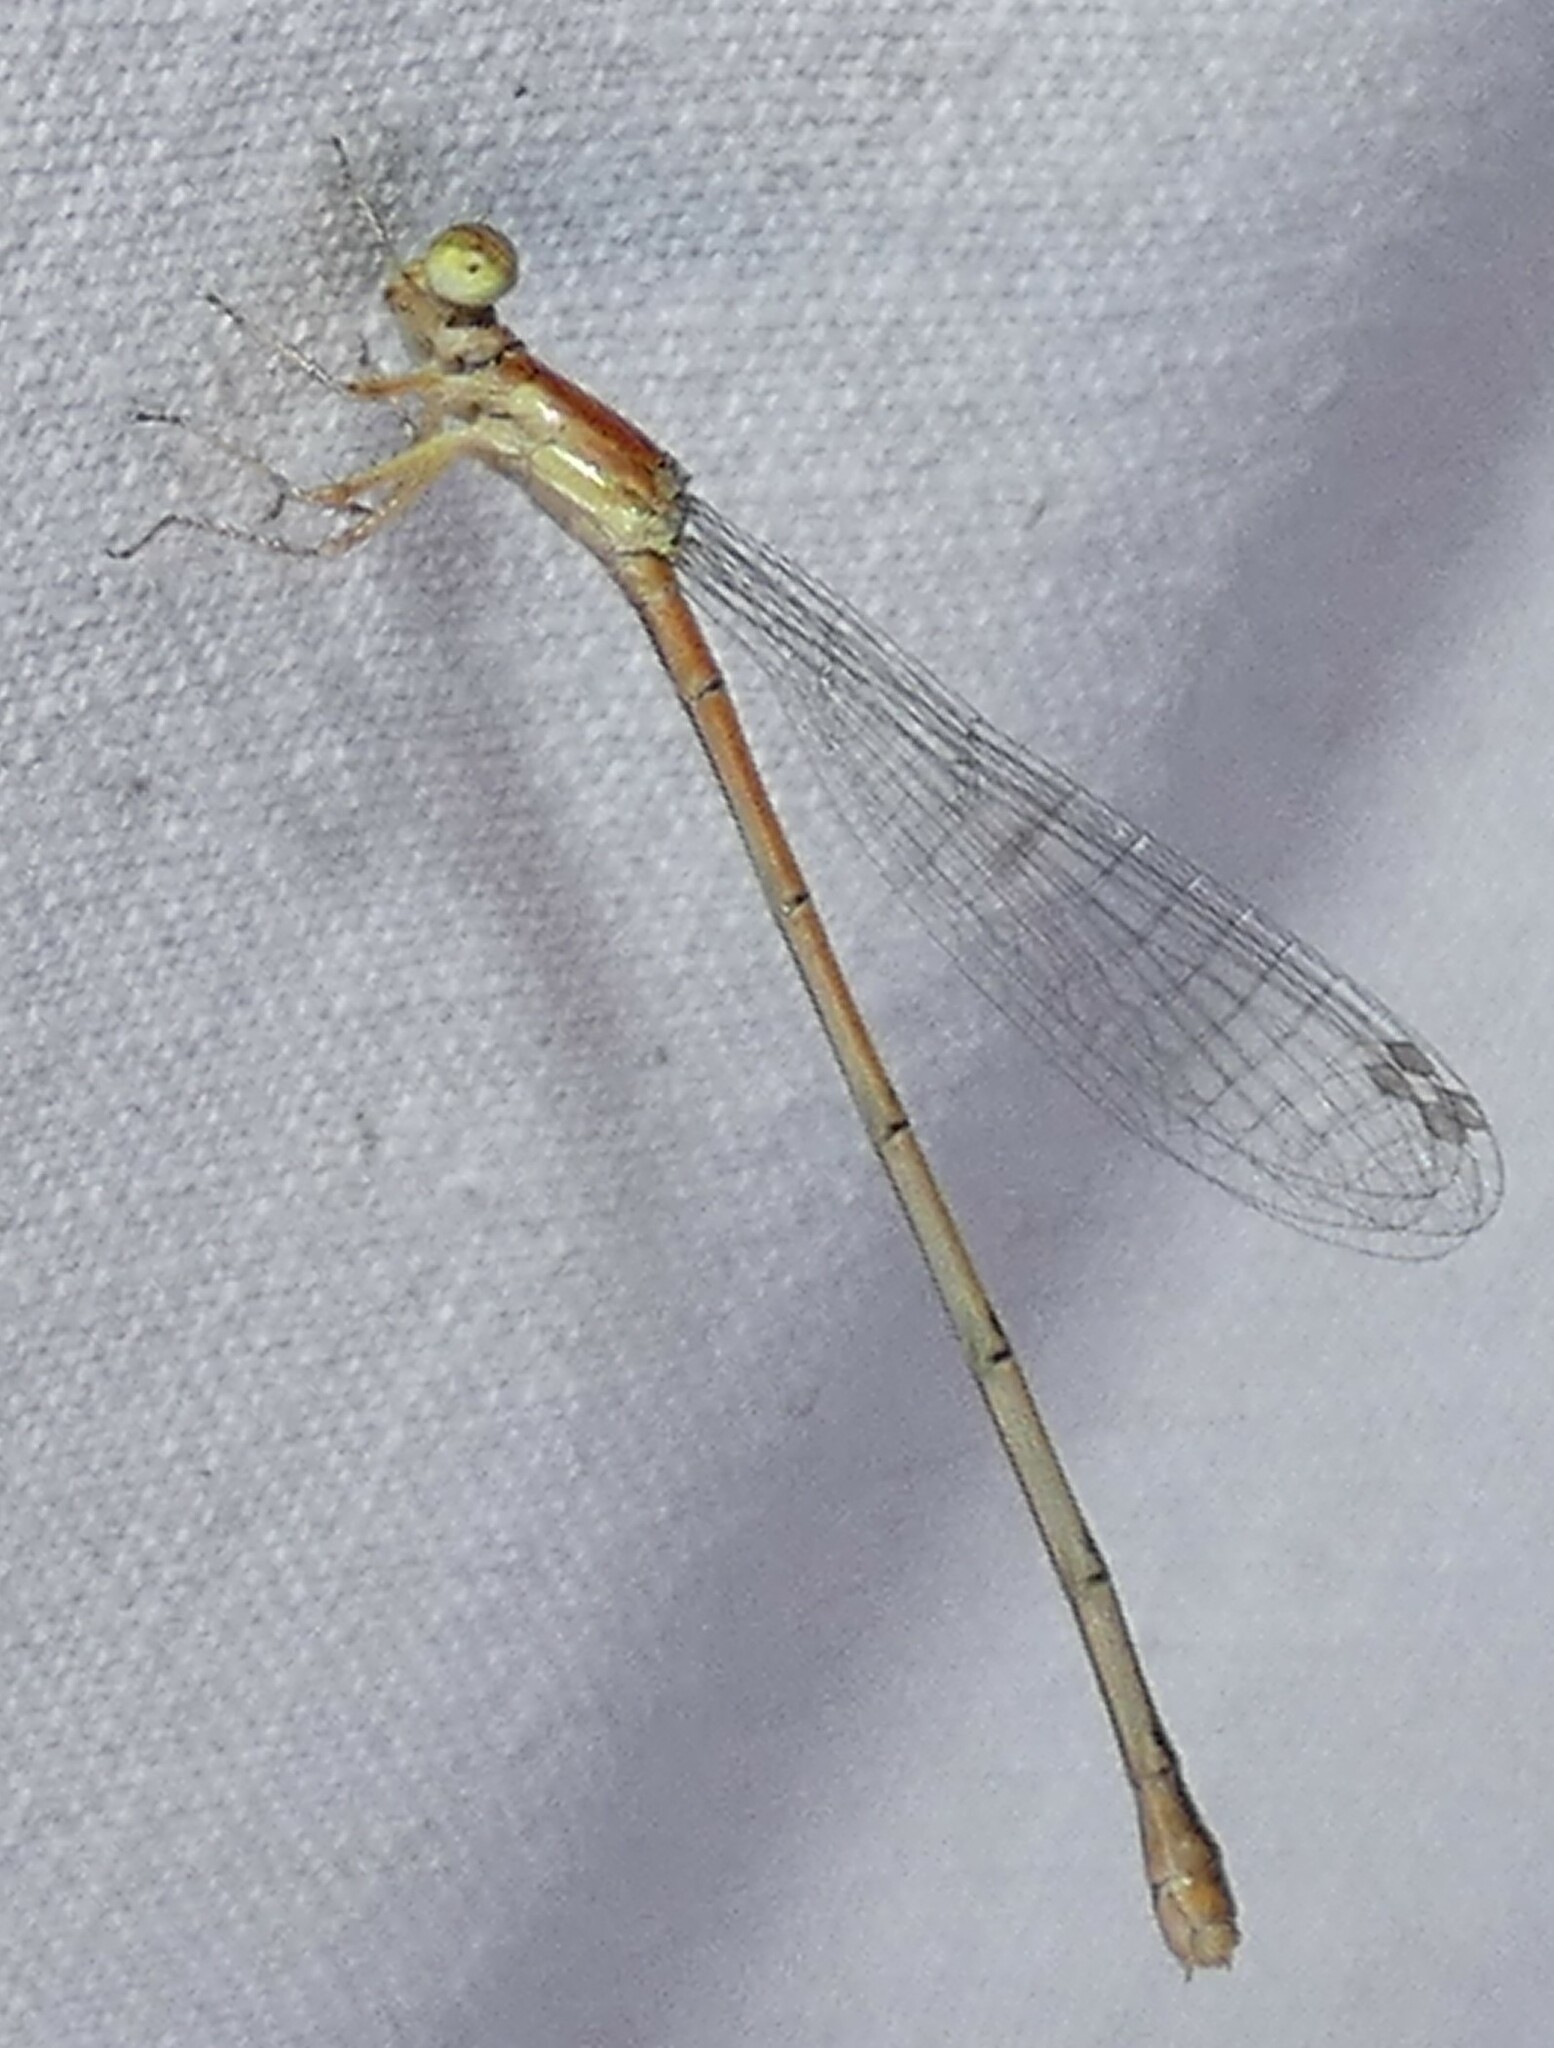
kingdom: Animalia
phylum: Arthropoda
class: Insecta
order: Odonata
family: Coenagrionidae
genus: Ischnura
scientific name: Ischnura hastata
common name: Citrine forktail
